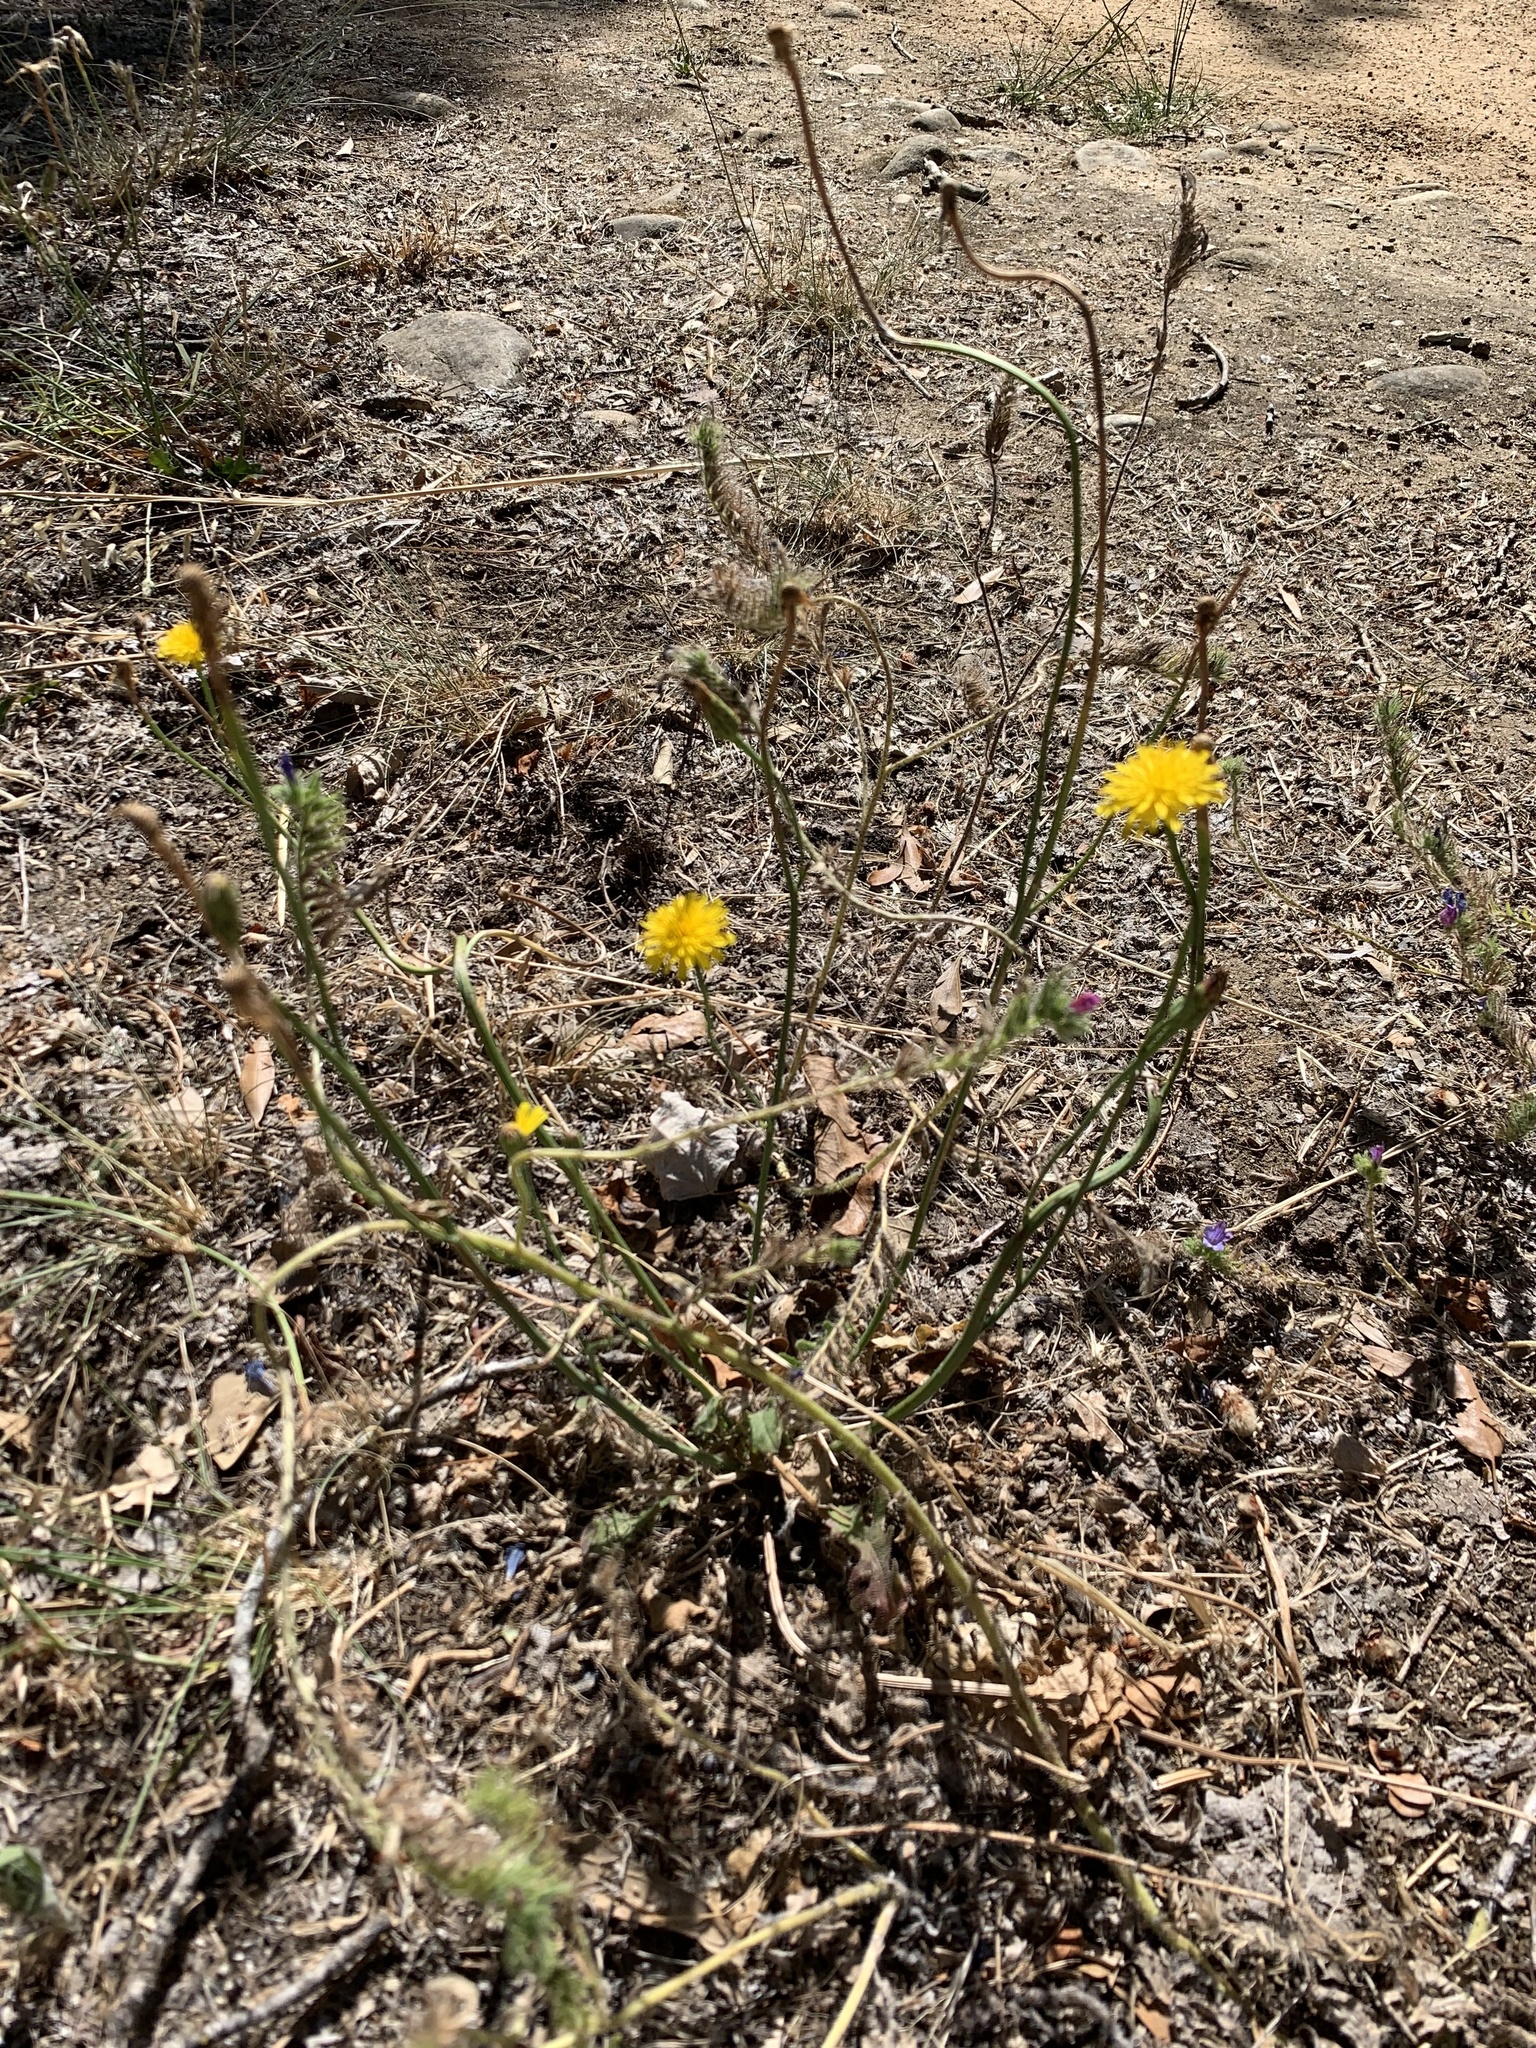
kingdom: Plantae
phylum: Tracheophyta
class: Magnoliopsida
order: Asterales
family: Asteraceae
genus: Hypochaeris
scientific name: Hypochaeris radicata
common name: Flatweed
